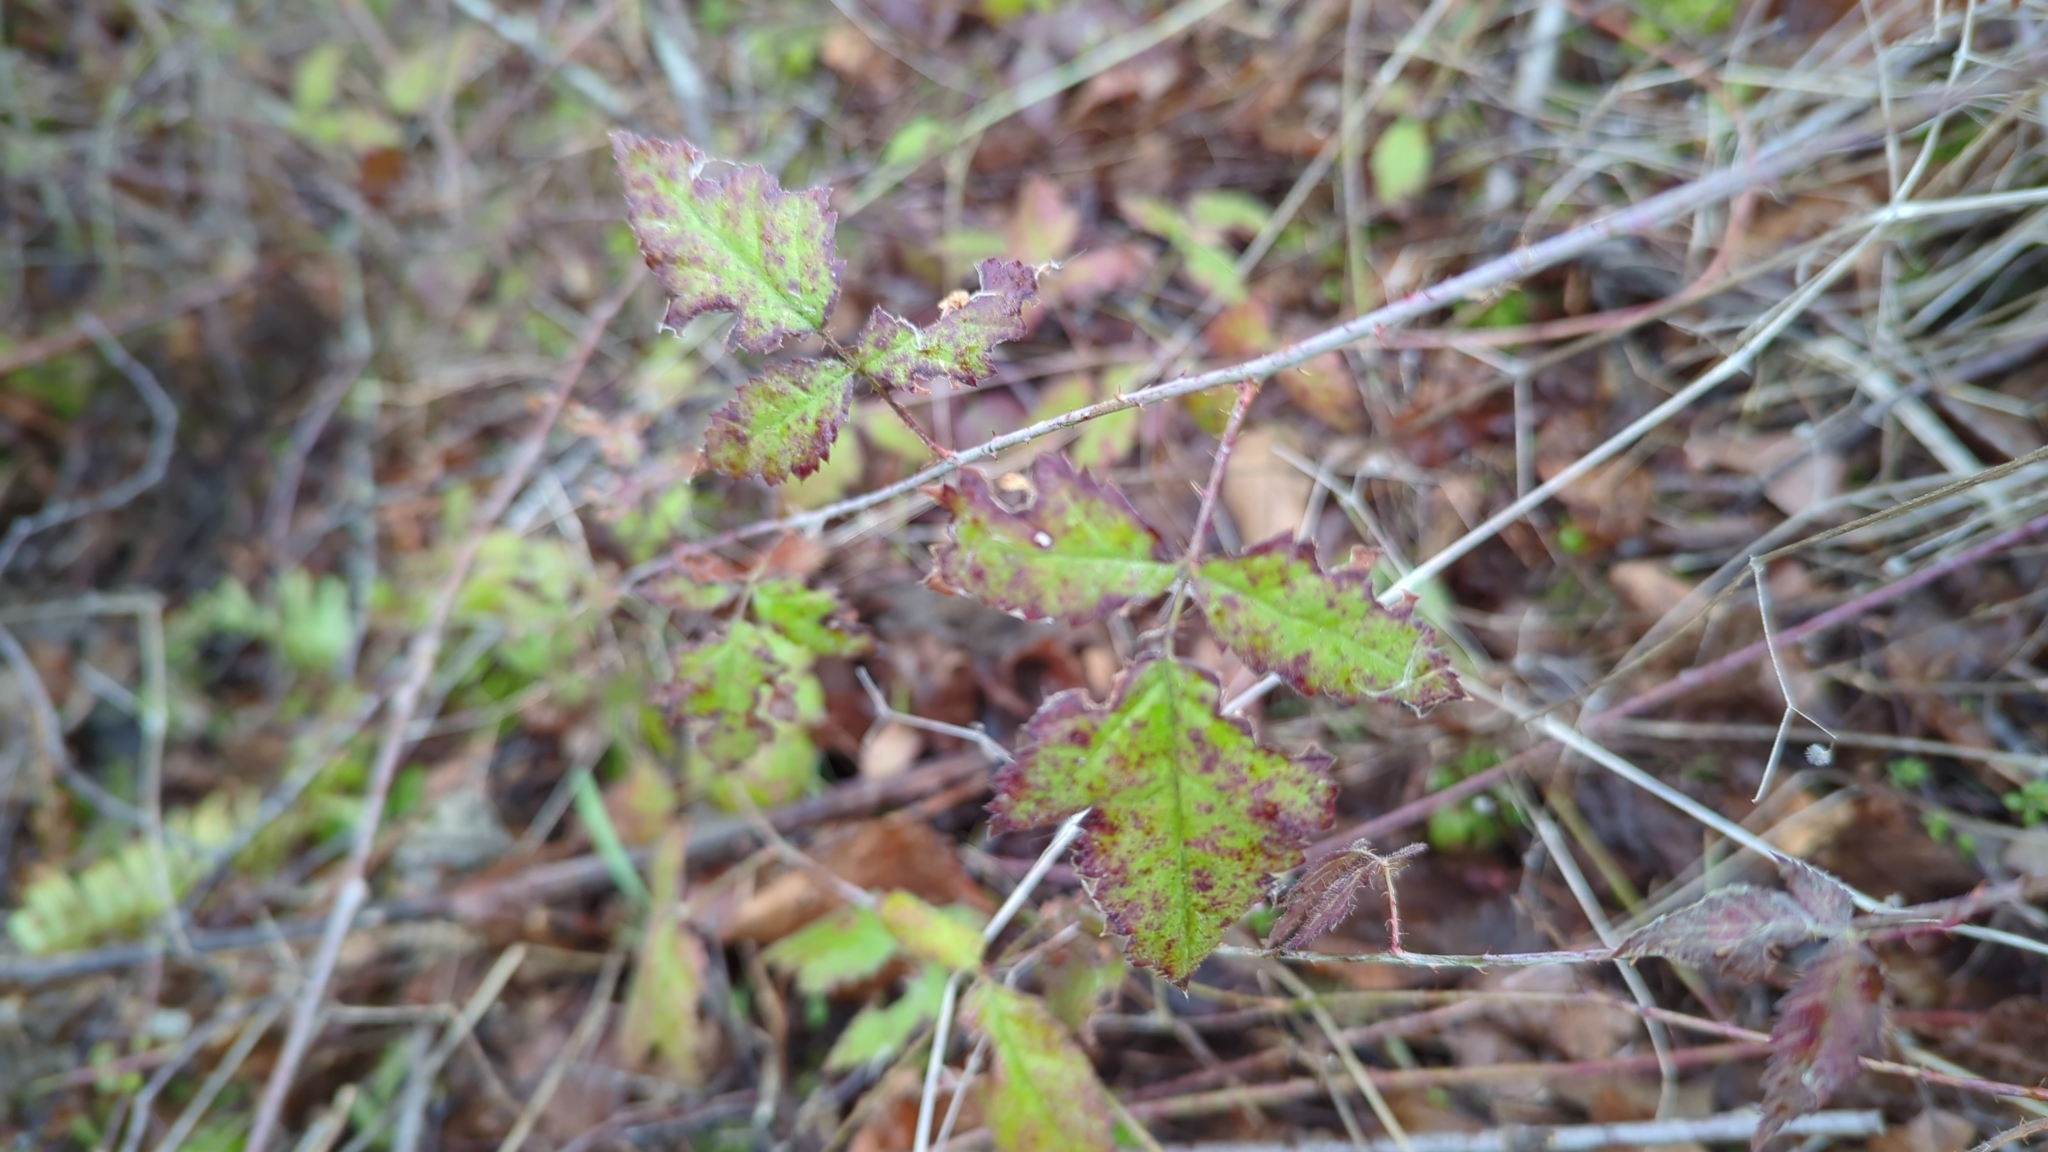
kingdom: Plantae
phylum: Tracheophyta
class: Magnoliopsida
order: Rosales
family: Rosaceae
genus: Rubus
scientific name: Rubus ursinus
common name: Pacific blackberry
